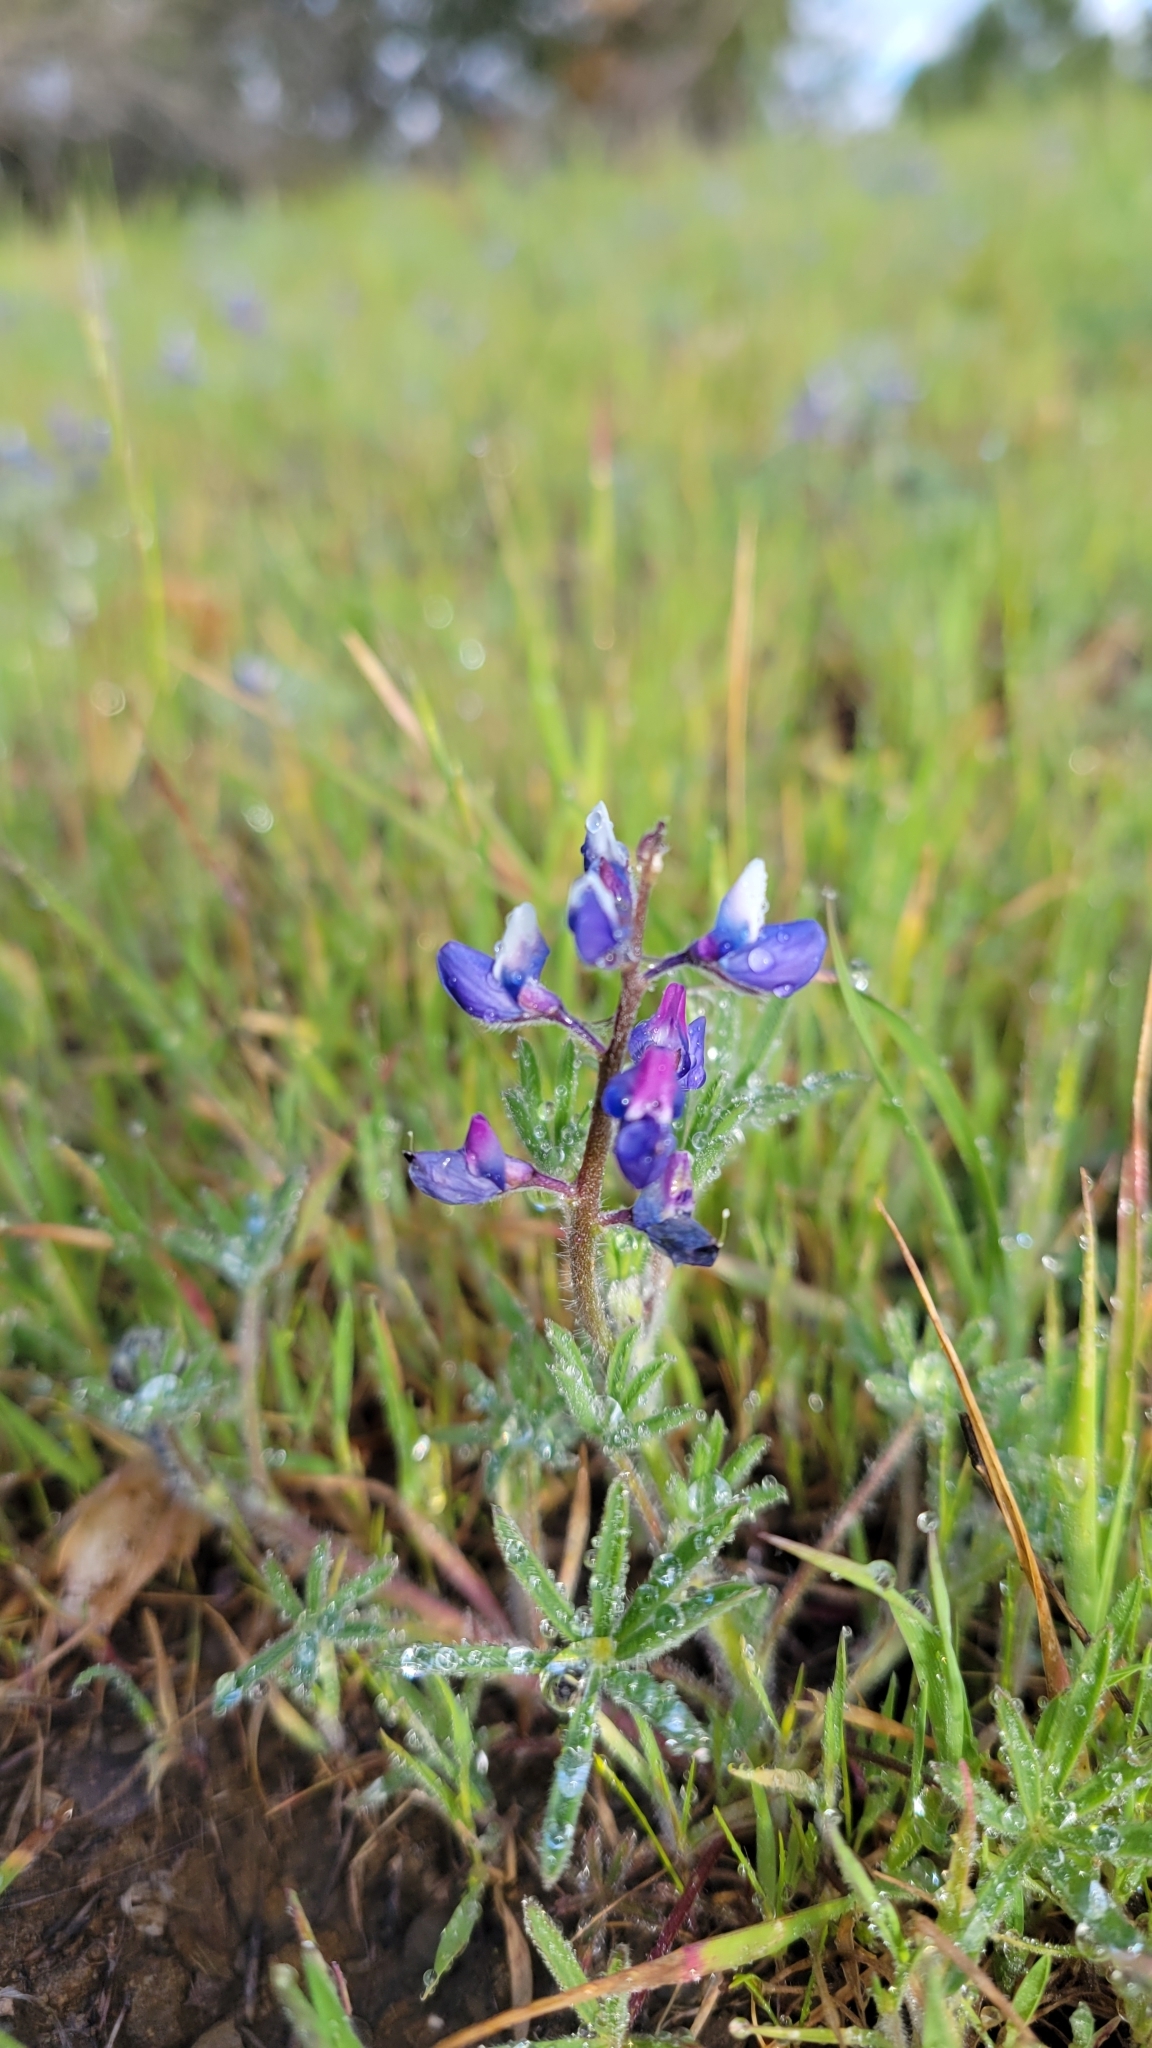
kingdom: Plantae
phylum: Tracheophyta
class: Magnoliopsida
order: Fabales
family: Fabaceae
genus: Lupinus
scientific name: Lupinus bicolor
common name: Miniature lupine
